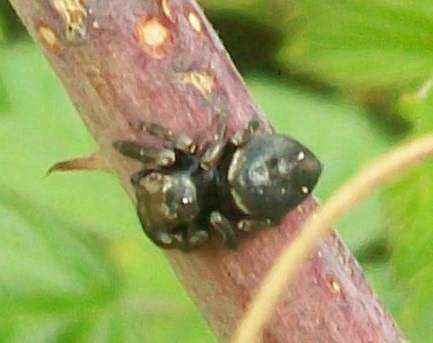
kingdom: Animalia
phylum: Arthropoda
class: Arachnida
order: Araneae
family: Salticidae
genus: Evarcha
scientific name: Evarcha arcuata
